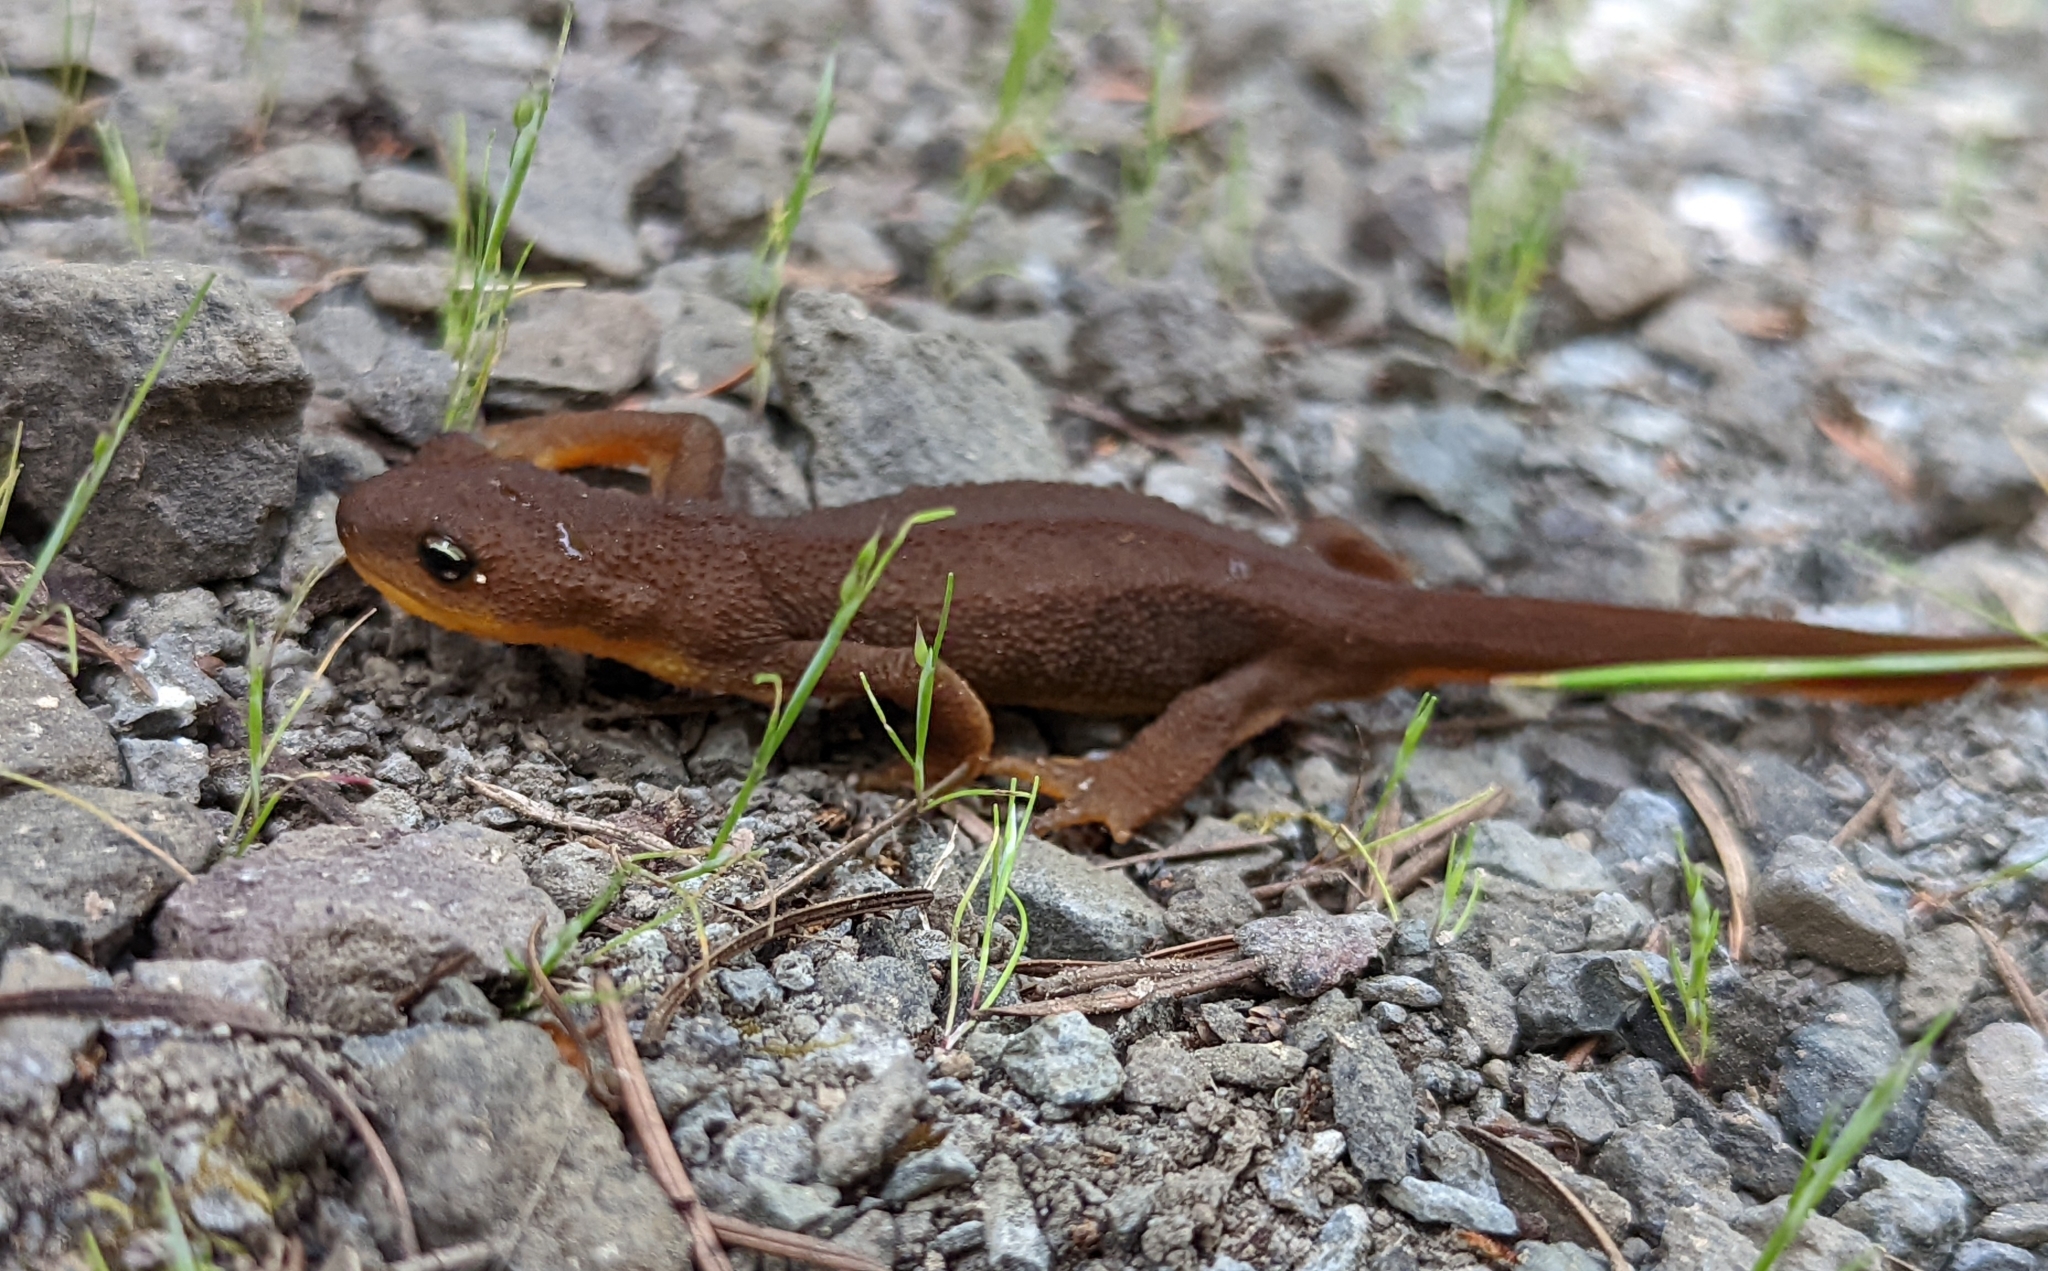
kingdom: Animalia
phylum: Chordata
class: Amphibia
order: Caudata
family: Salamandridae
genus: Taricha
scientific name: Taricha granulosa
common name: Roughskin newt
